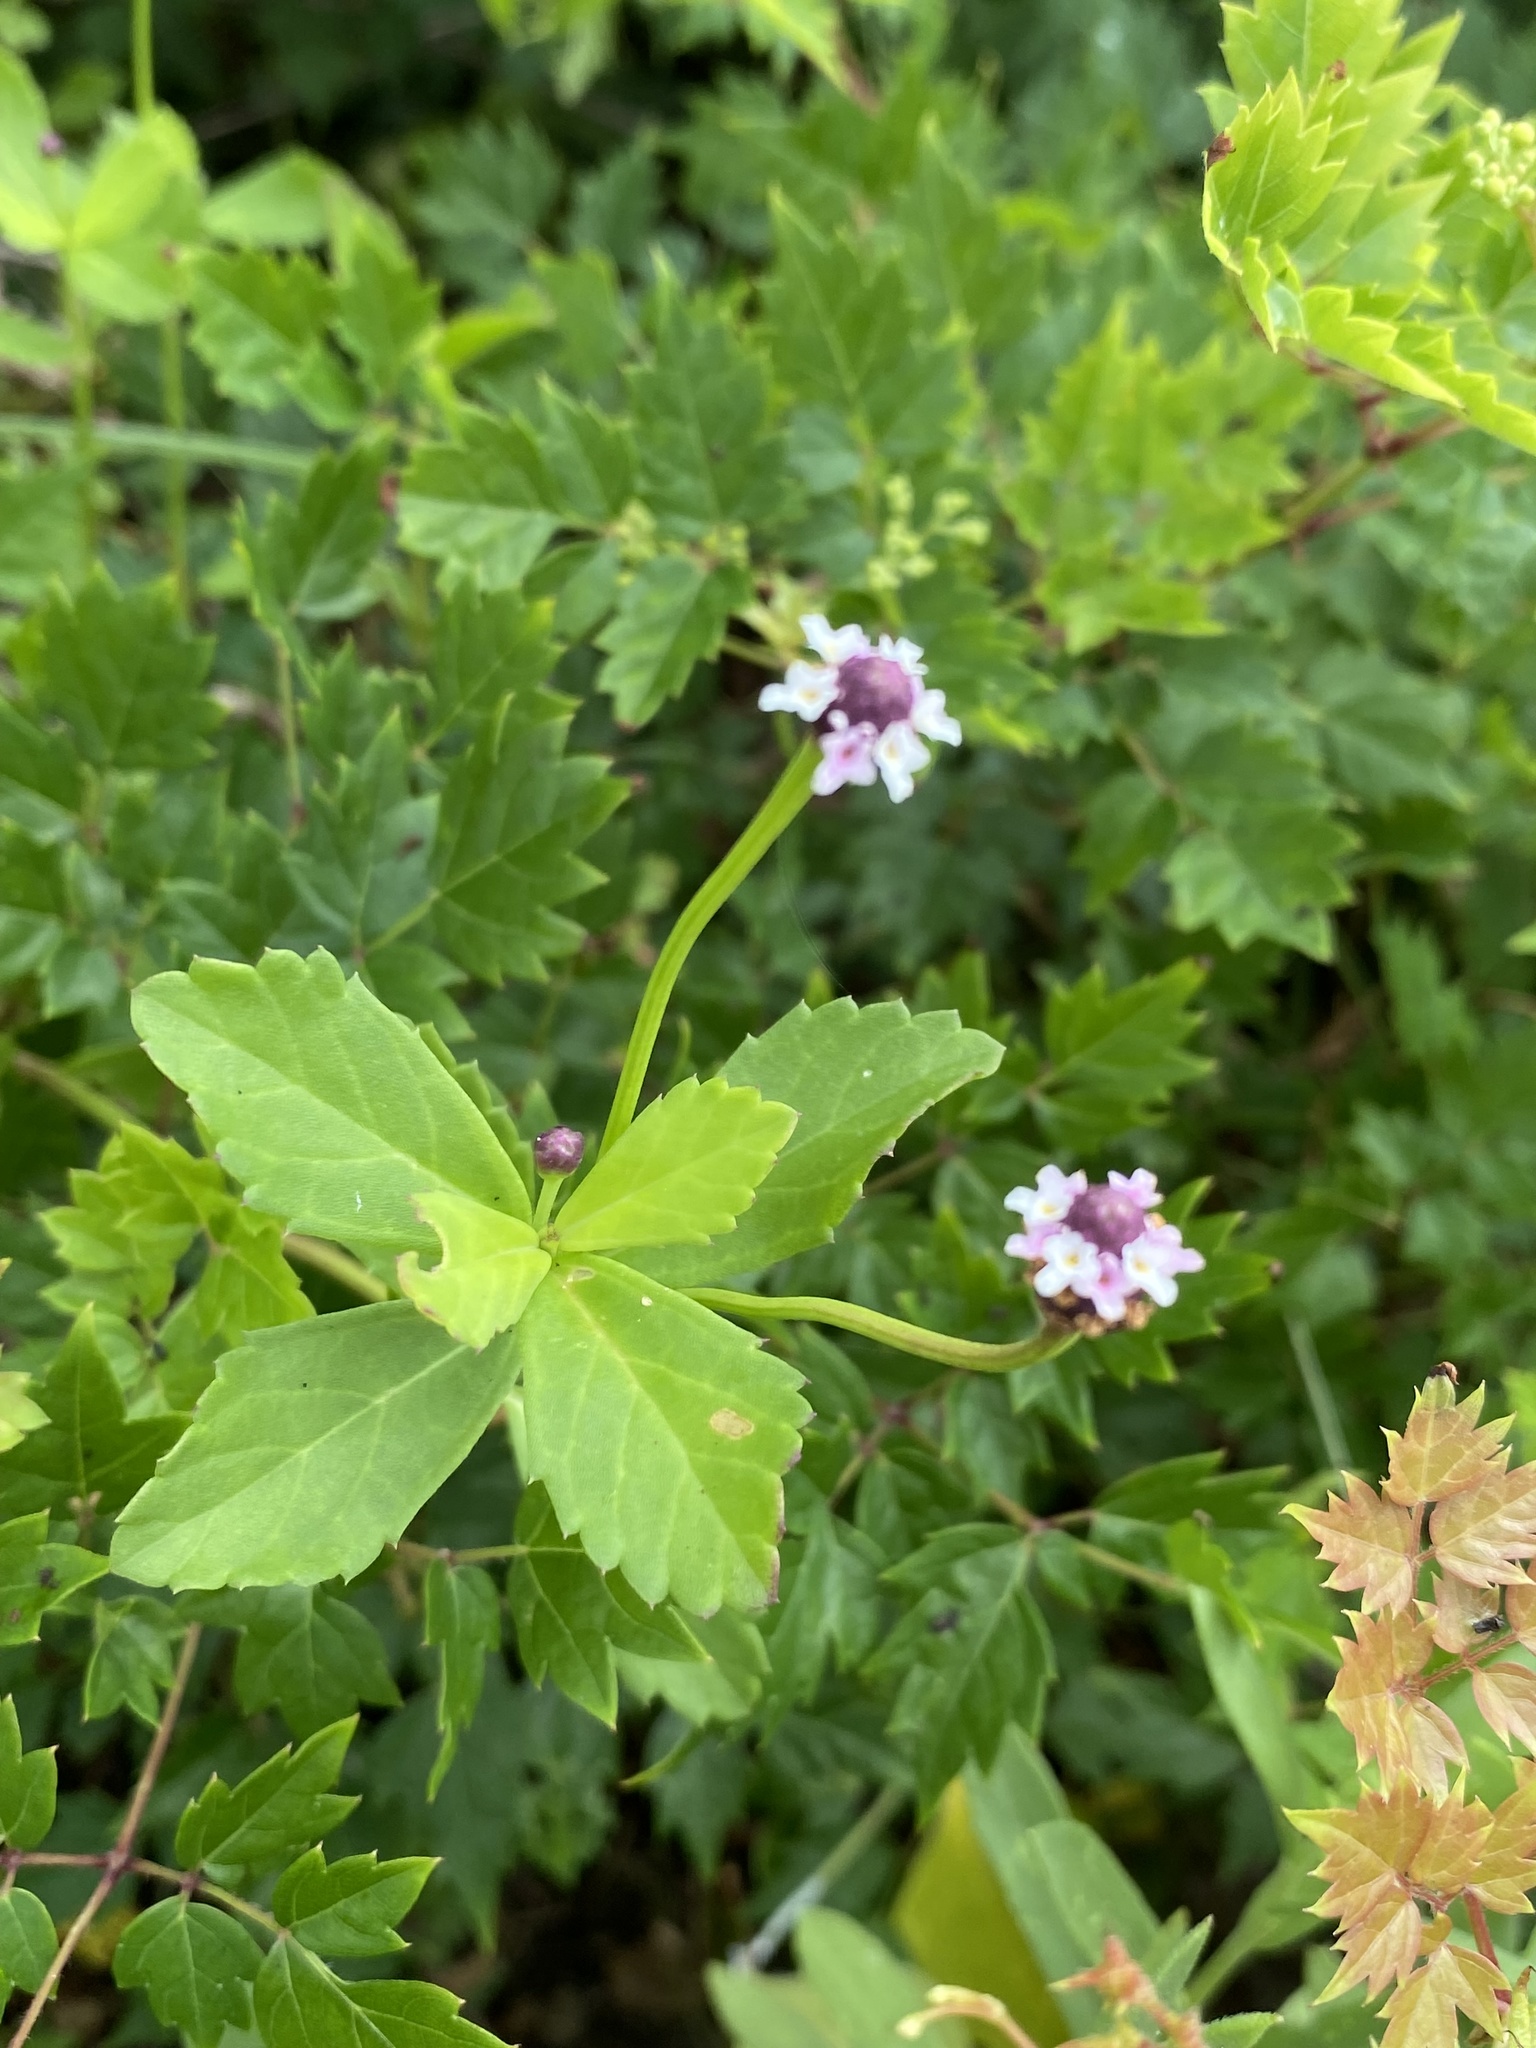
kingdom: Plantae
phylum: Tracheophyta
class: Magnoliopsida
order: Lamiales
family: Verbenaceae
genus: Phyla
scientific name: Phyla nodiflora
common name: Frogfruit
